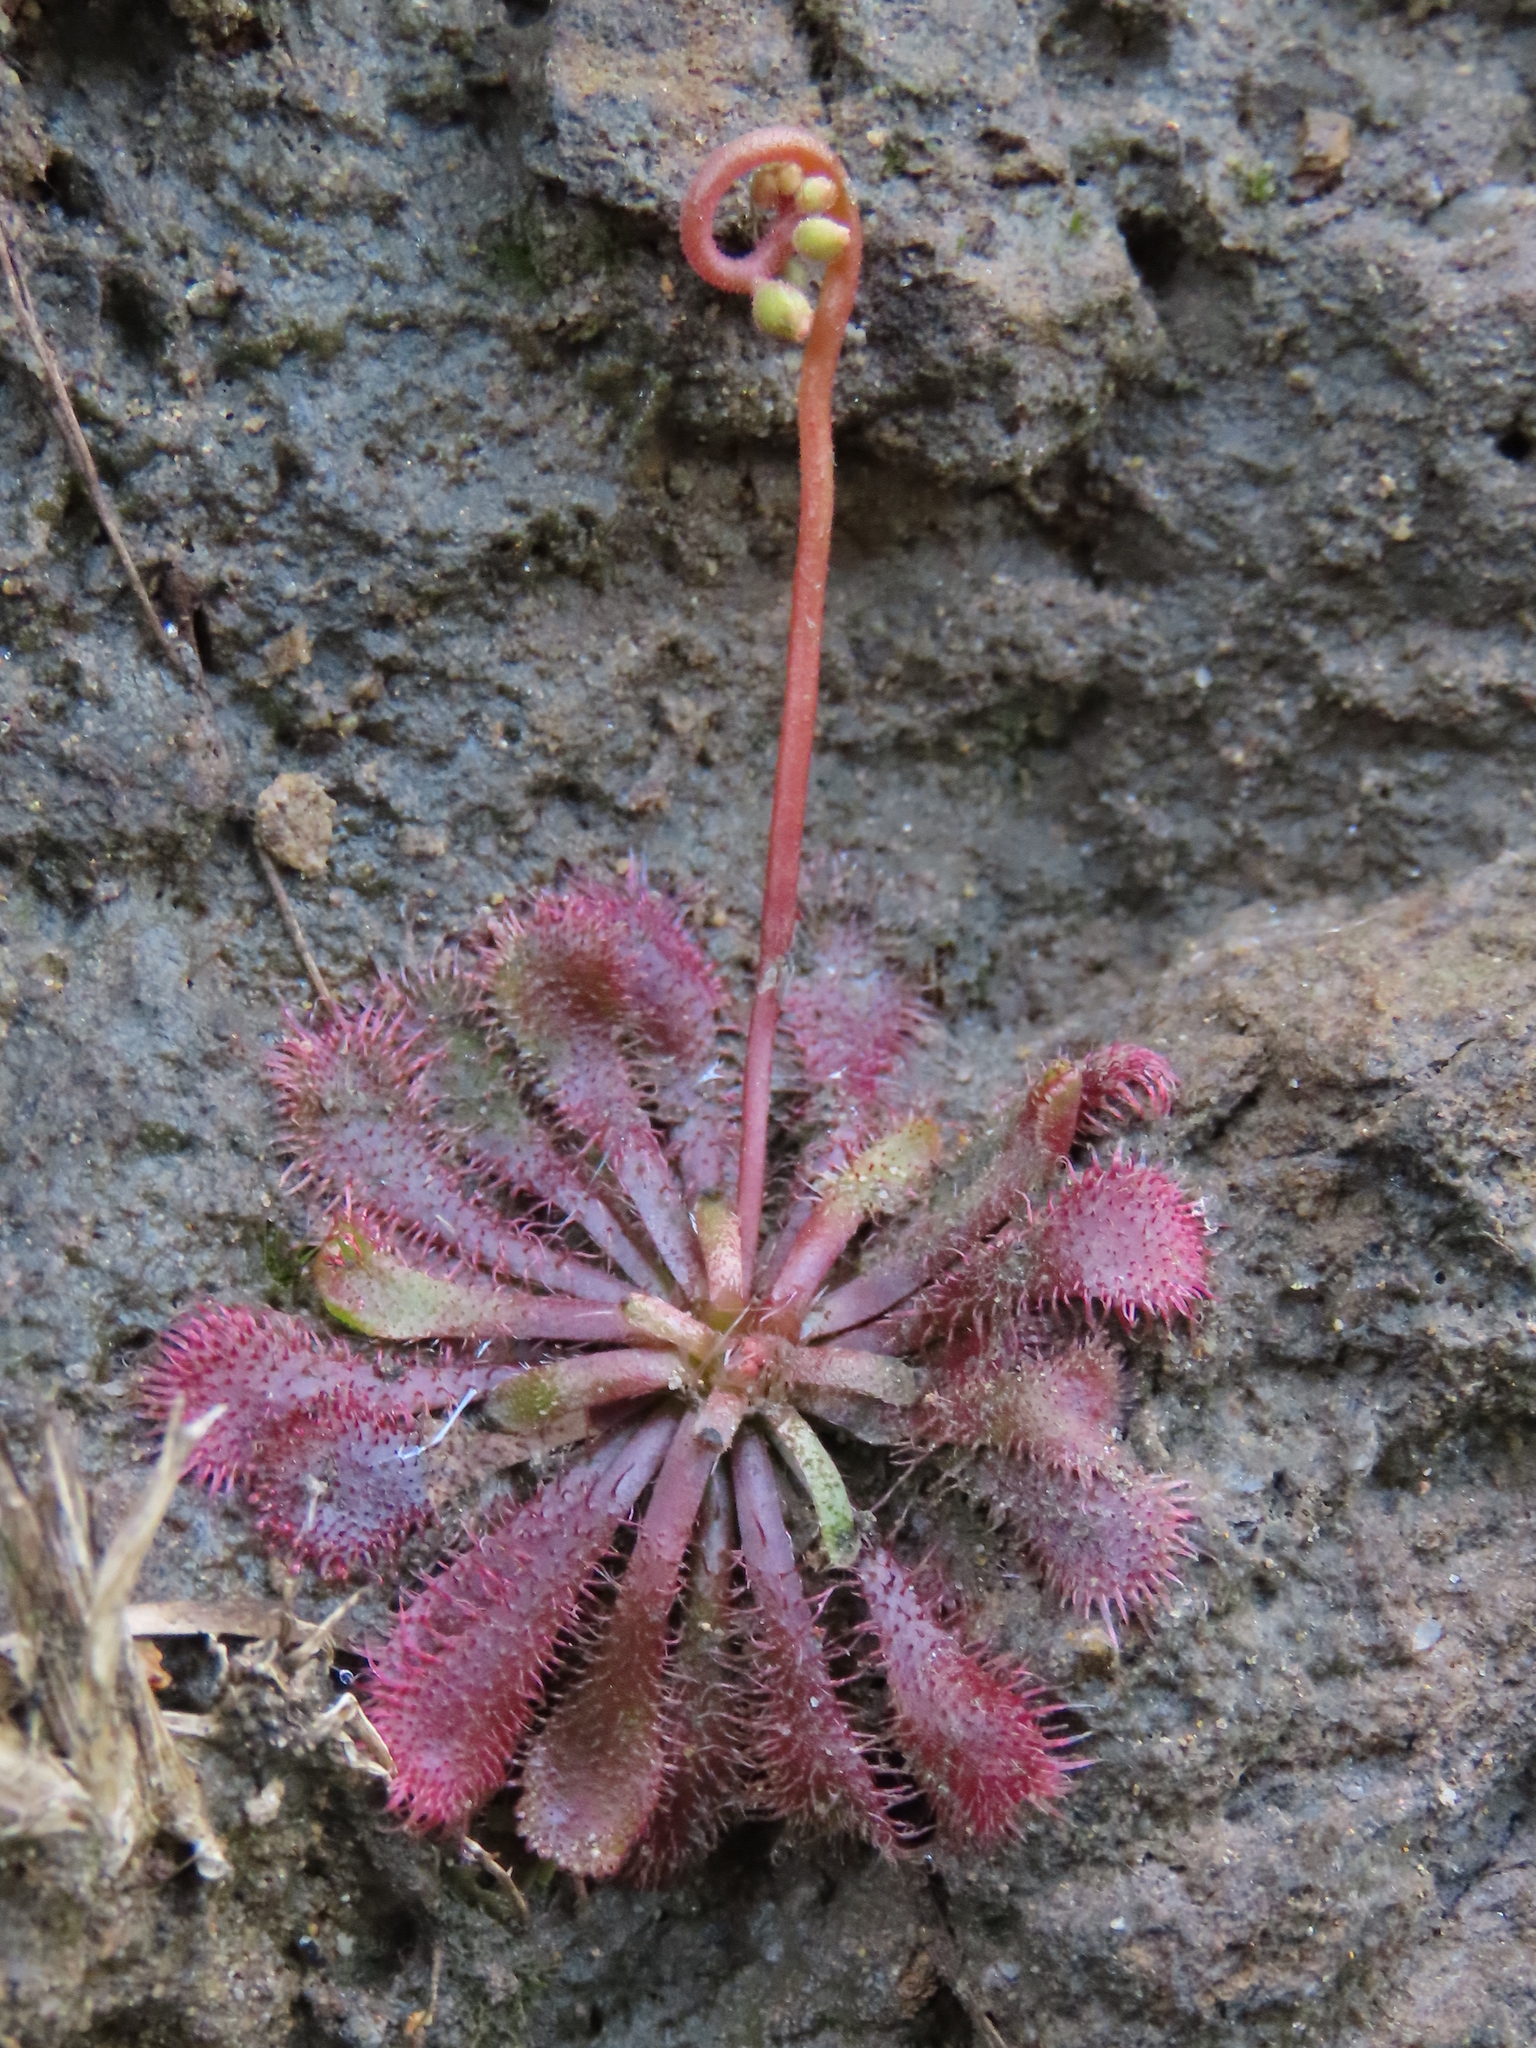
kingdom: Plantae
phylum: Tracheophyta
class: Magnoliopsida
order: Caryophyllales
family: Droseraceae
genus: Drosera
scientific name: Drosera spatulata
